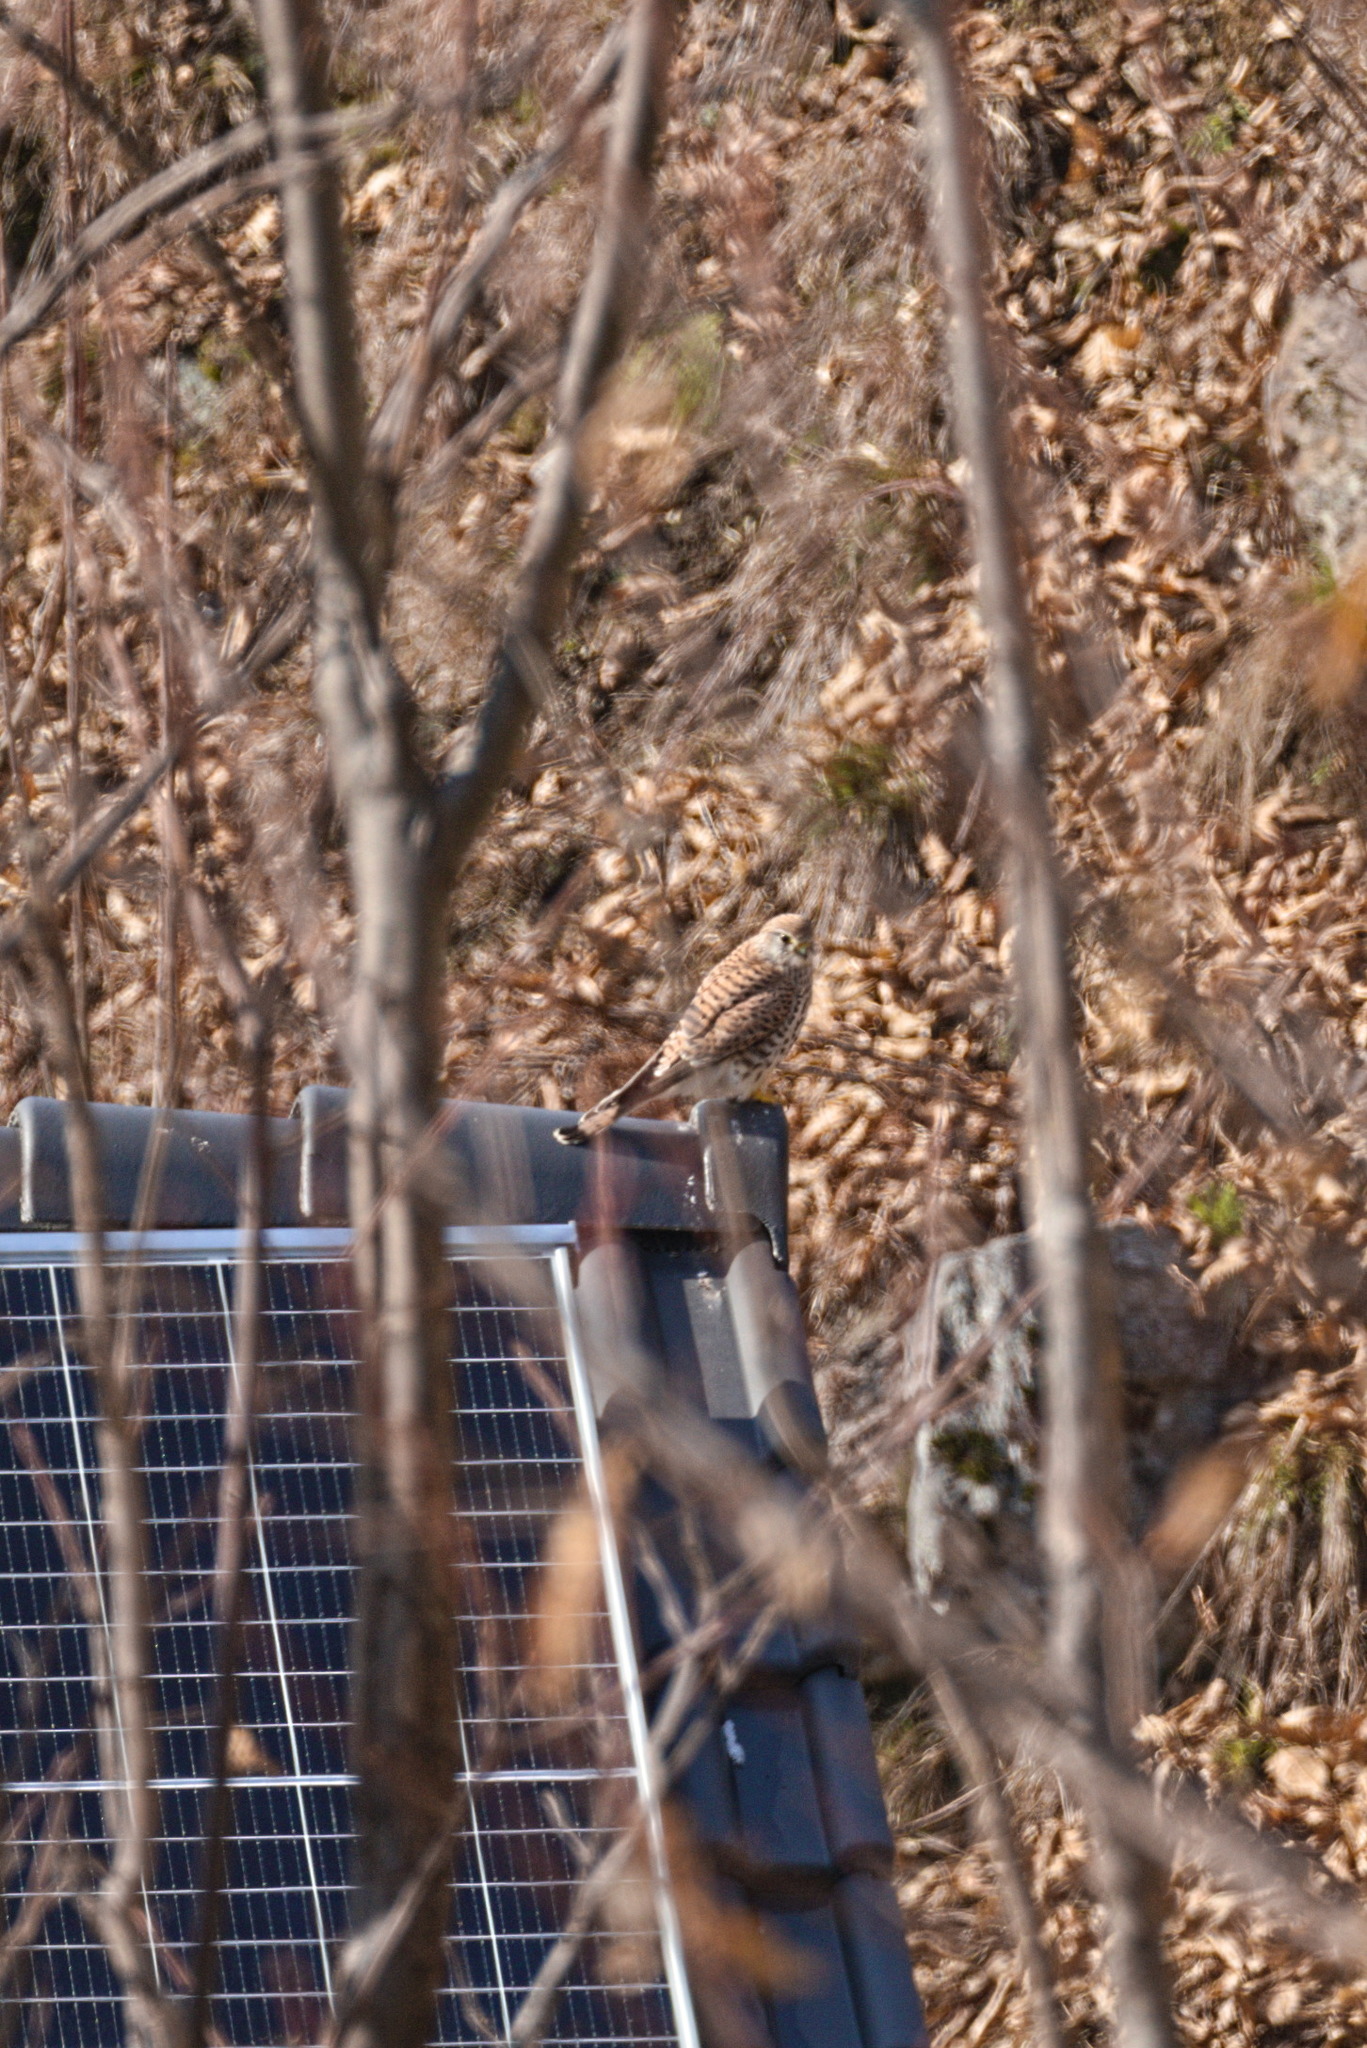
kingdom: Animalia
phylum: Chordata
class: Aves
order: Falconiformes
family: Falconidae
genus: Falco
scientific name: Falco tinnunculus
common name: Common kestrel
